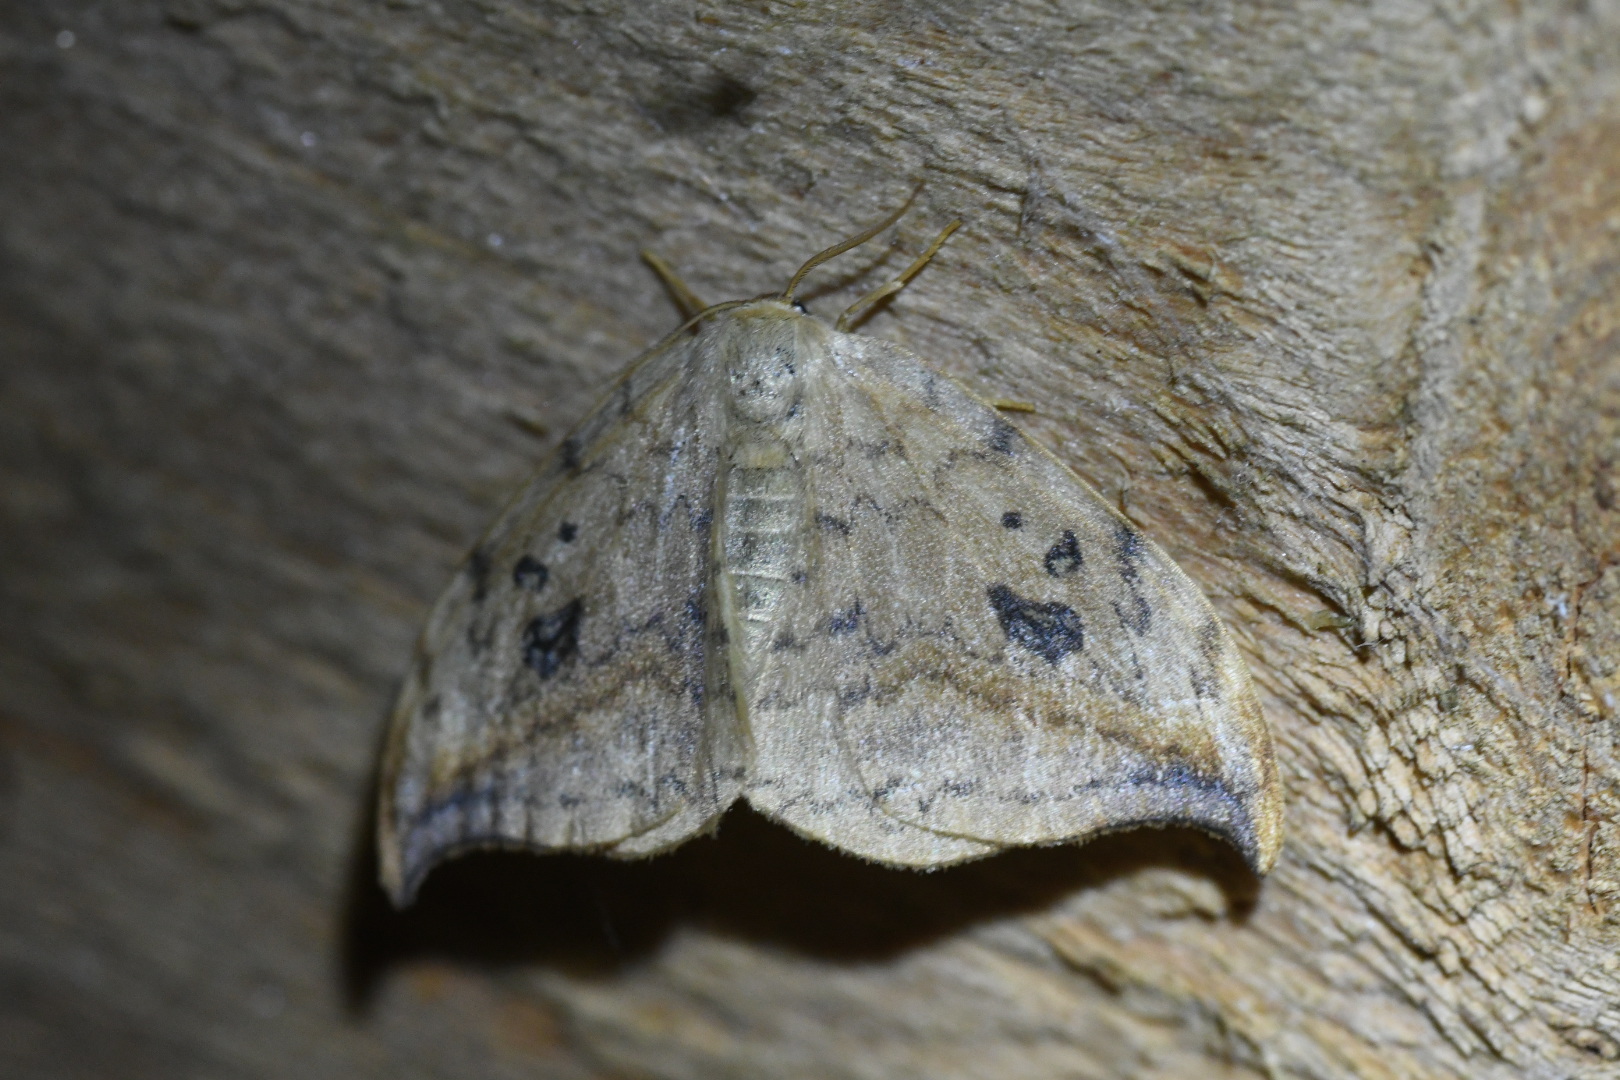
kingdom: Animalia
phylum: Arthropoda
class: Insecta
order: Lepidoptera
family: Drepanidae
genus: Drepana
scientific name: Drepana falcataria
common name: Pebble hook-tip
